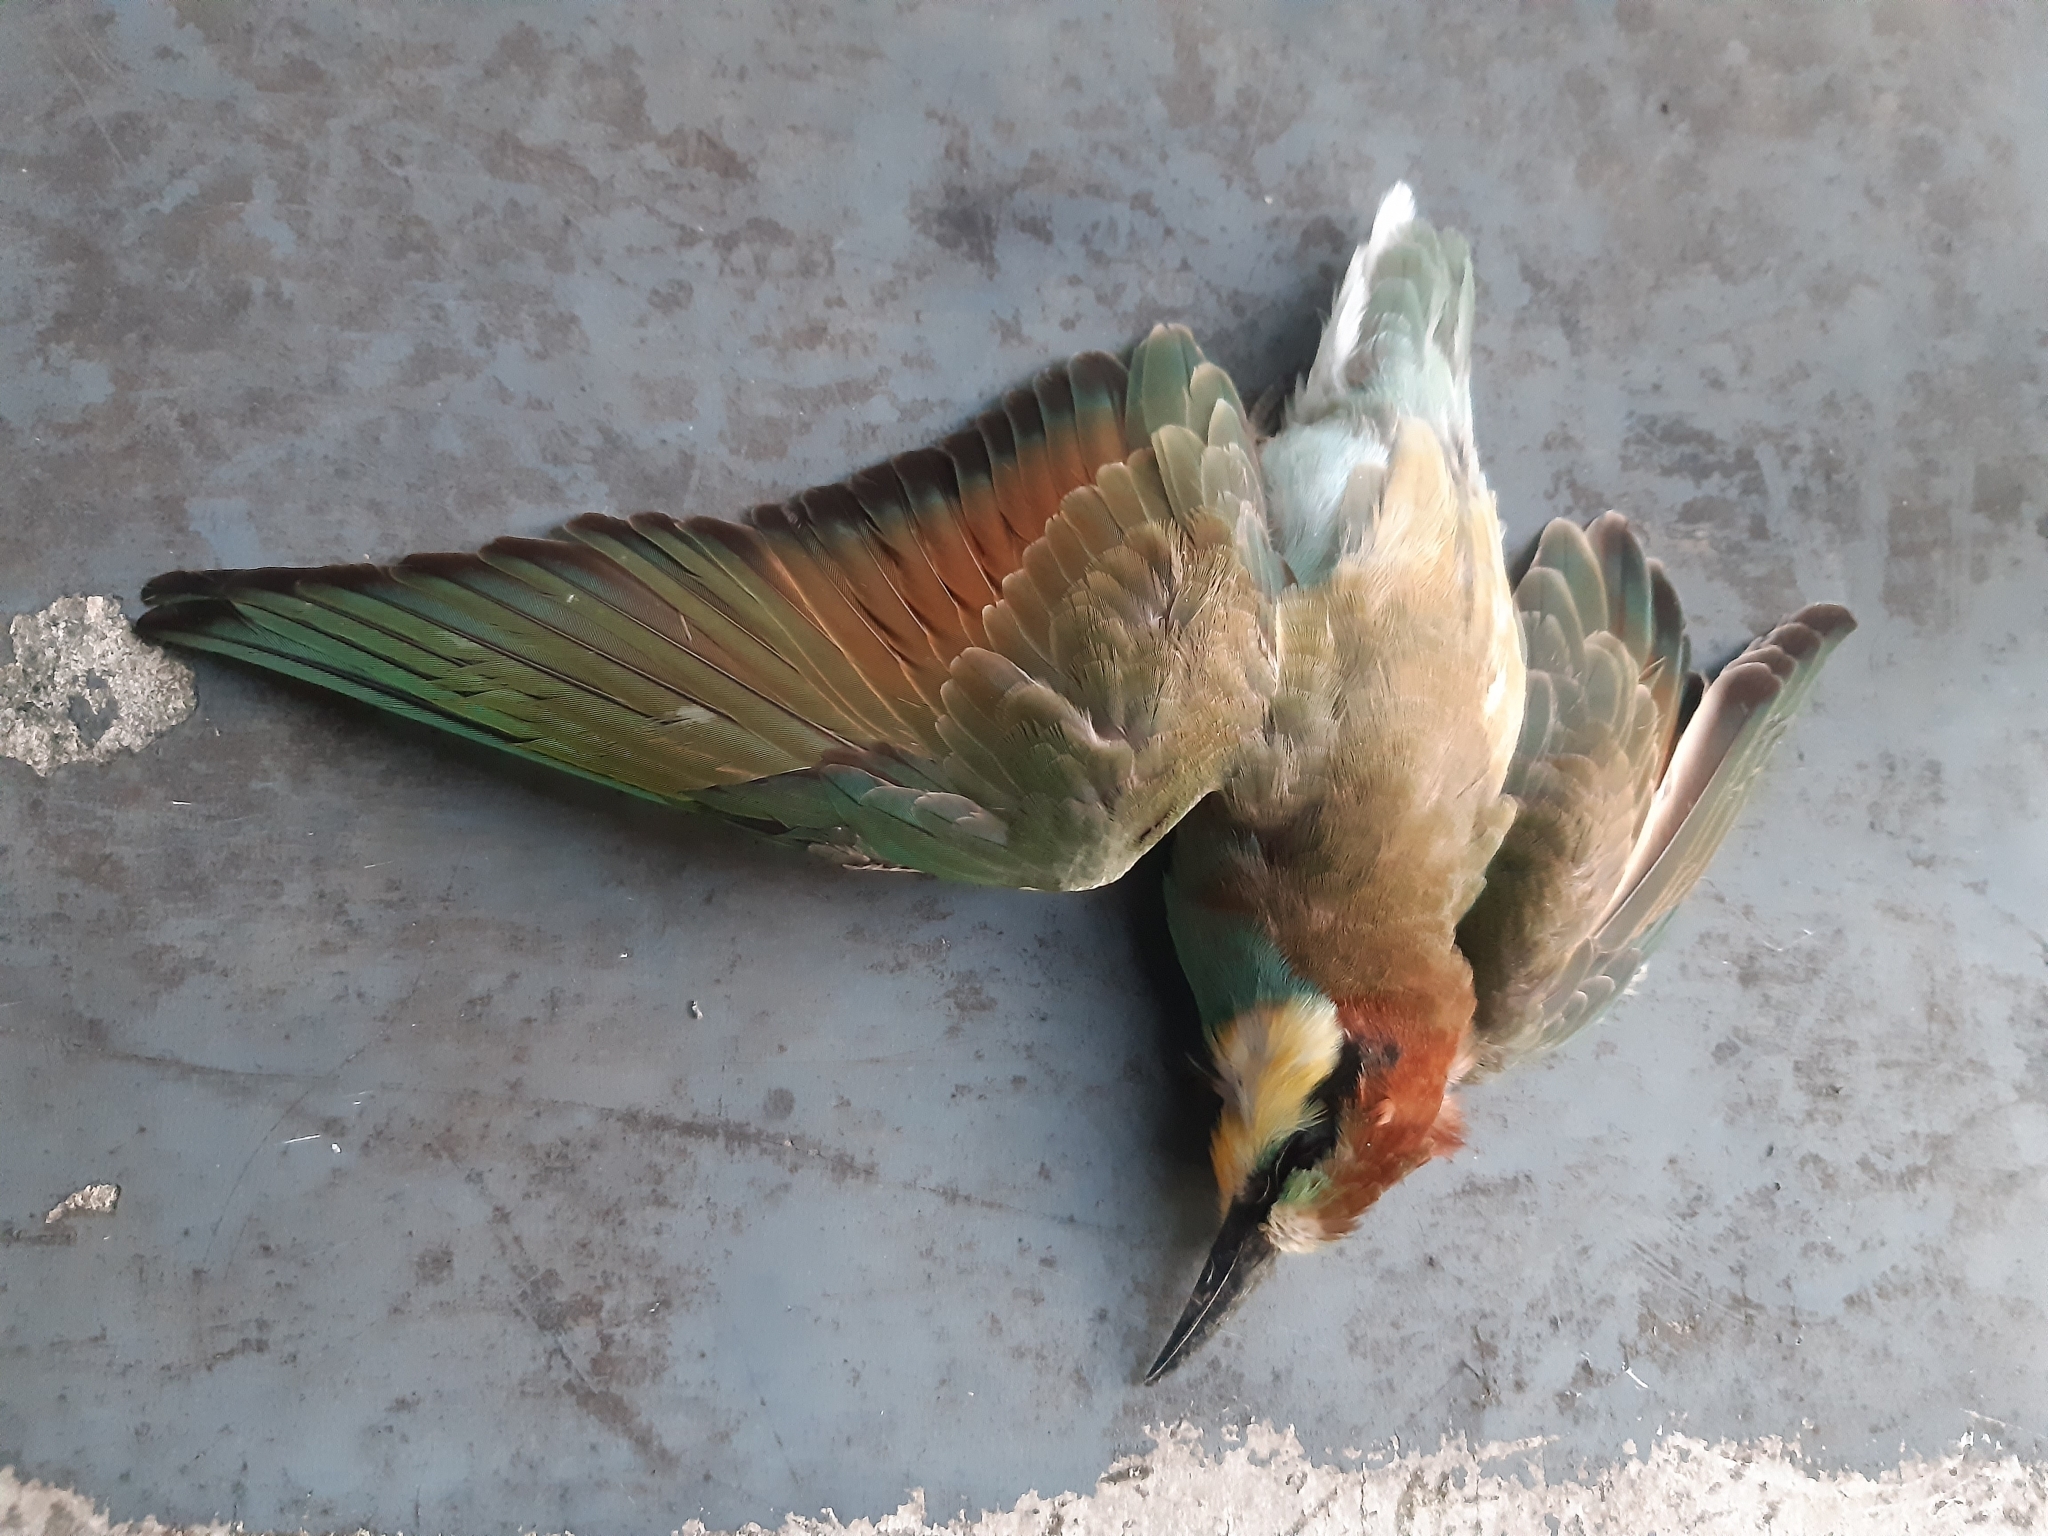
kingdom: Animalia
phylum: Chordata
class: Aves
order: Coraciiformes
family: Meropidae
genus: Merops
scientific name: Merops apiaster
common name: European bee-eater
